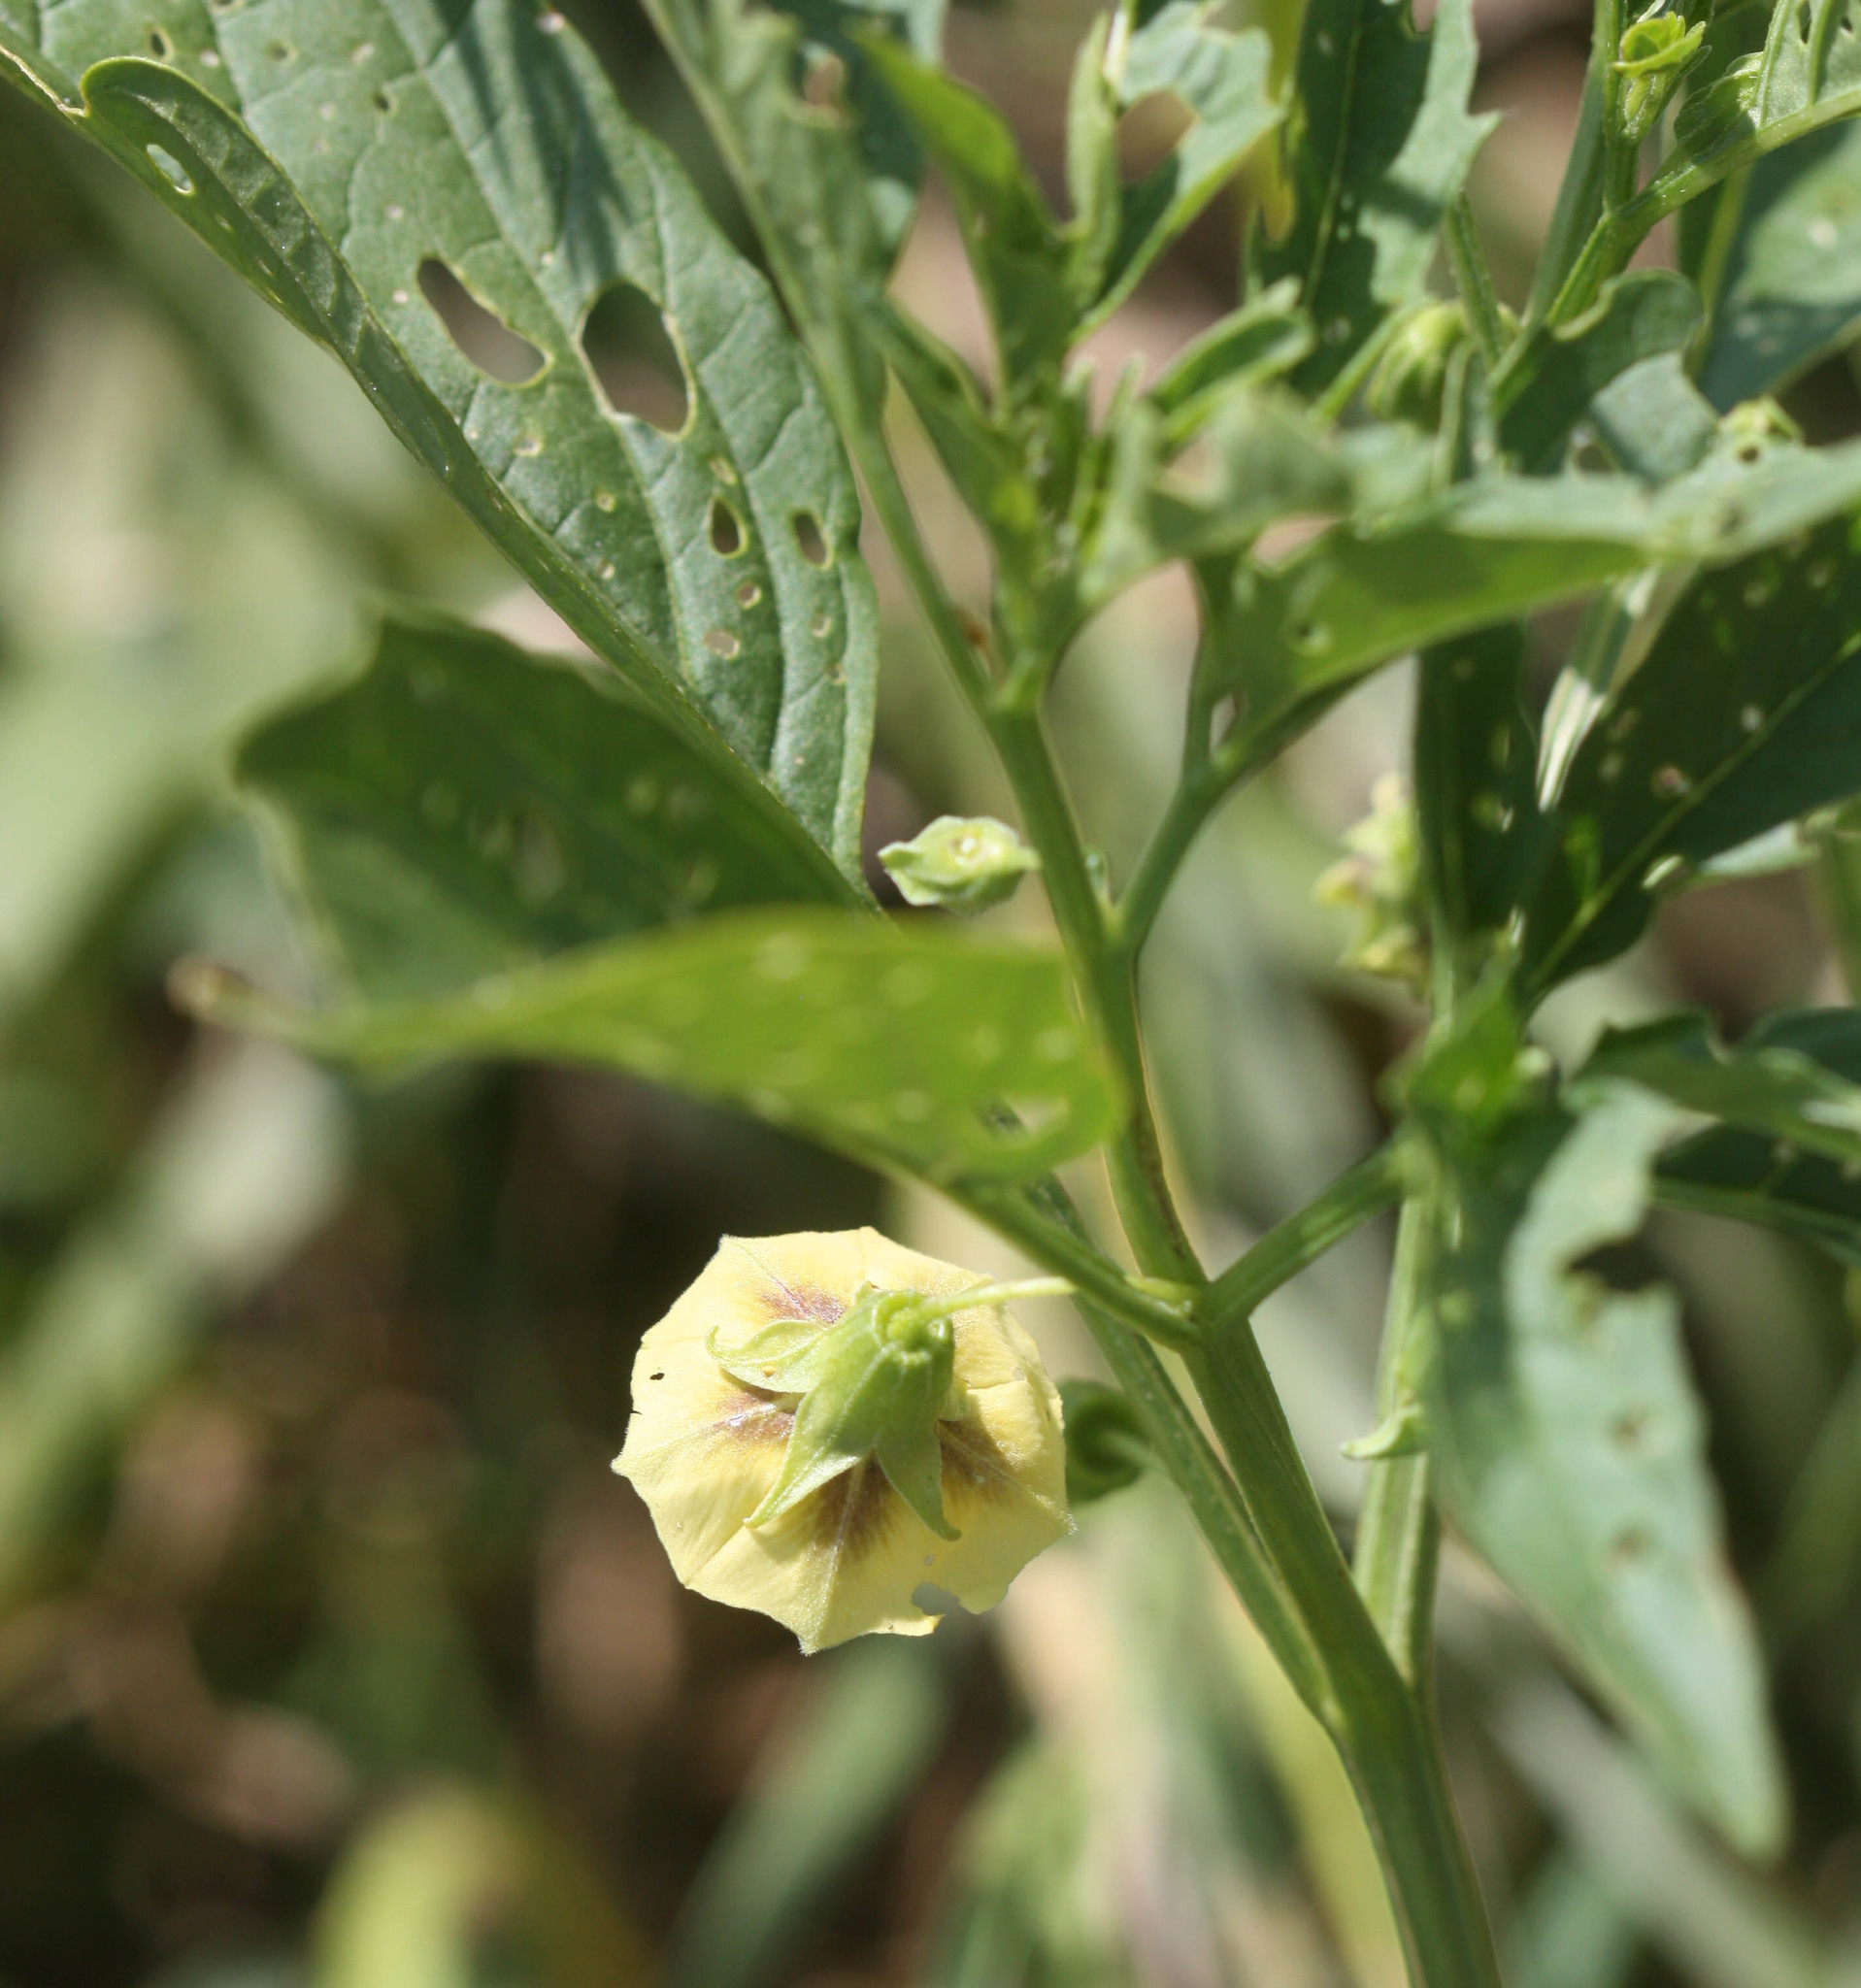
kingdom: Plantae
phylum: Tracheophyta
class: Magnoliopsida
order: Solanales
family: Solanaceae
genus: Physalis
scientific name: Physalis longifolia
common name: Common ground-cherry
